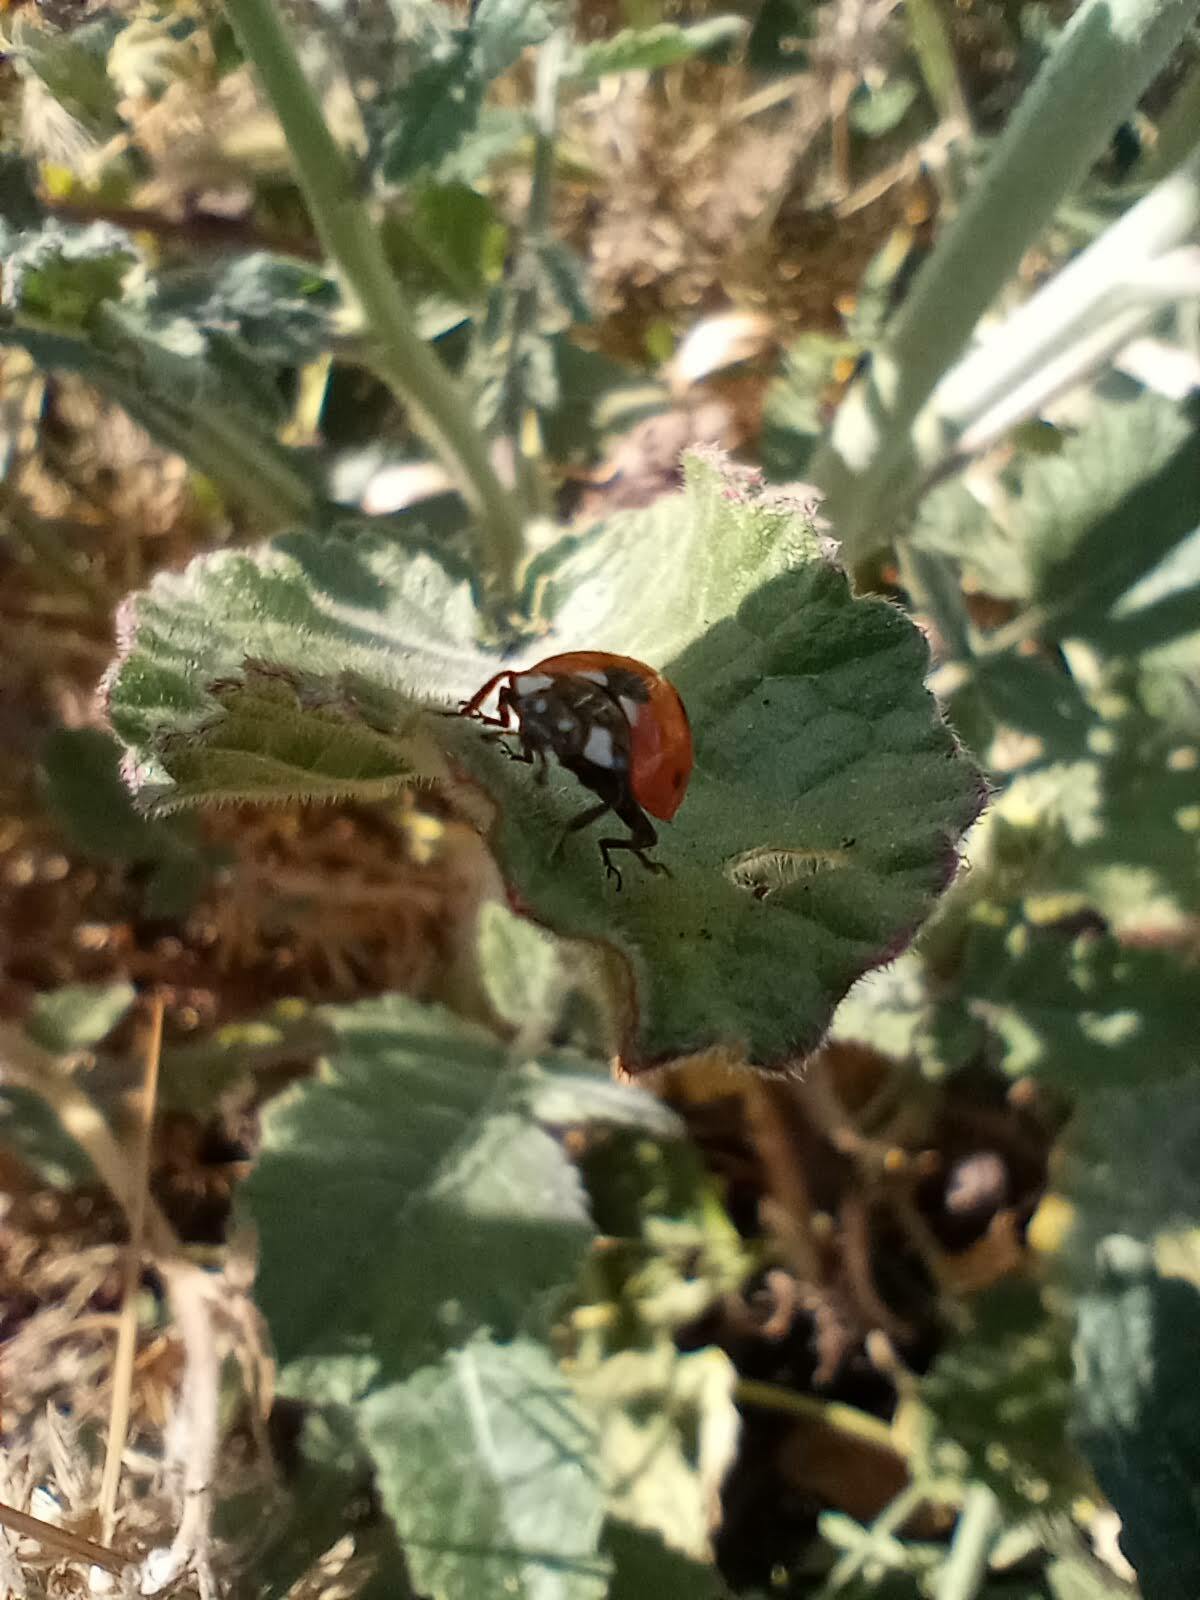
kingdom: Animalia
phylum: Arthropoda
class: Insecta
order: Coleoptera
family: Coccinellidae
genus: Coccinella
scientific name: Coccinella septempunctata
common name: Sevenspotted lady beetle
